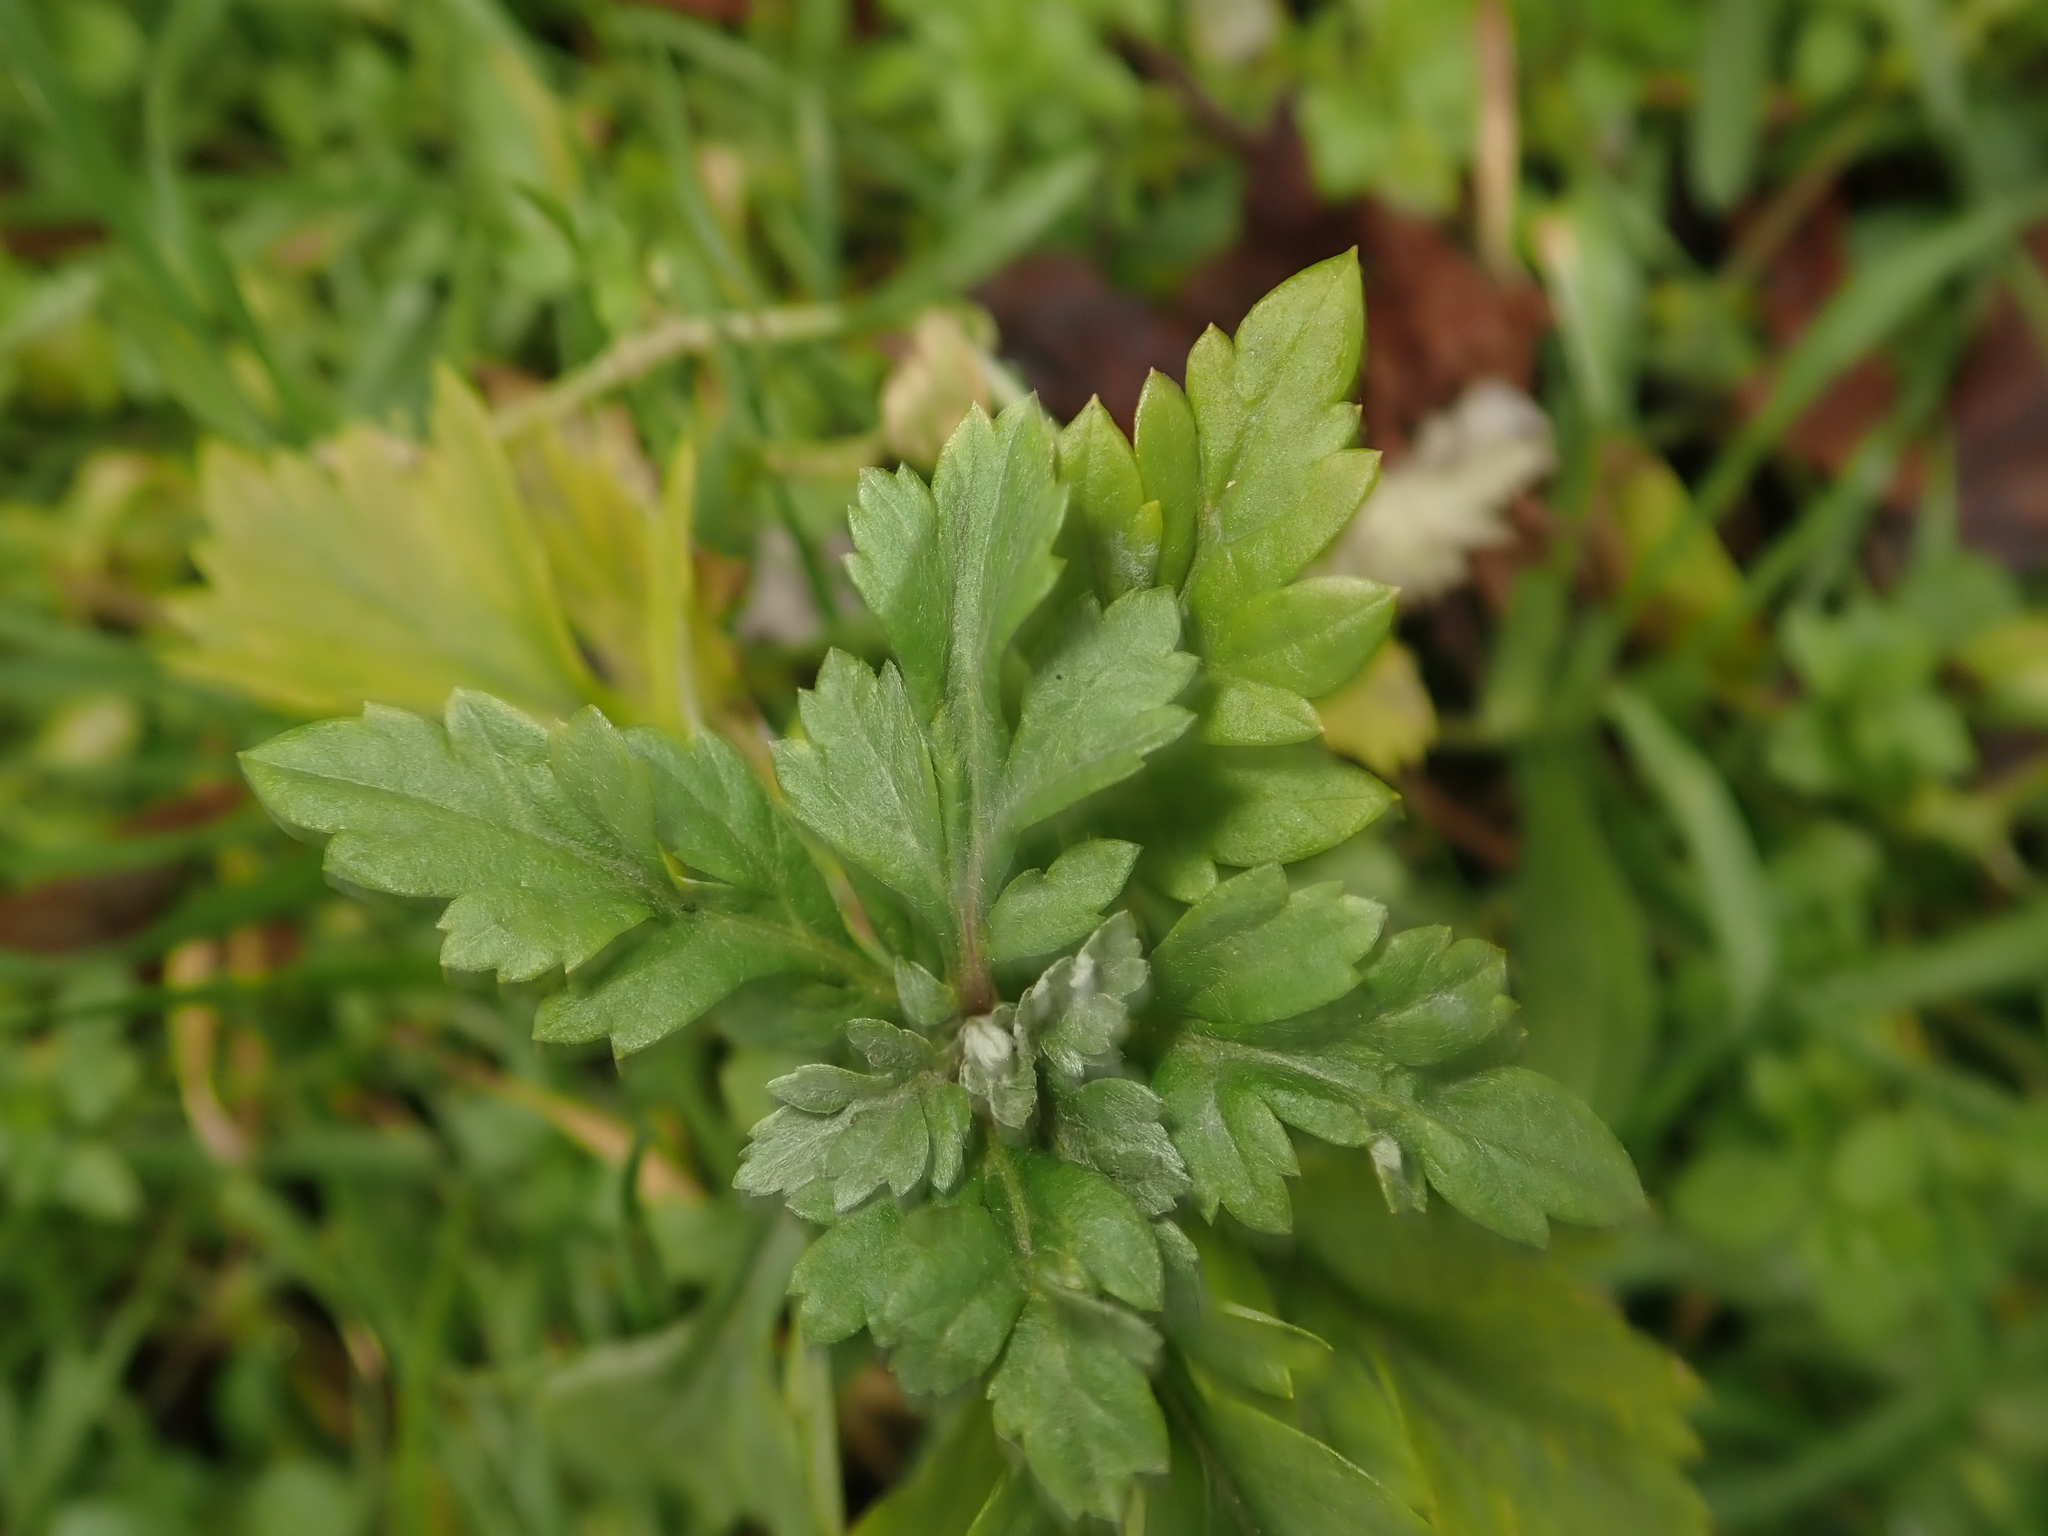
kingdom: Plantae
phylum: Tracheophyta
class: Magnoliopsida
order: Asterales
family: Asteraceae
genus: Artemisia
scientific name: Artemisia vulgaris
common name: Mugwort
